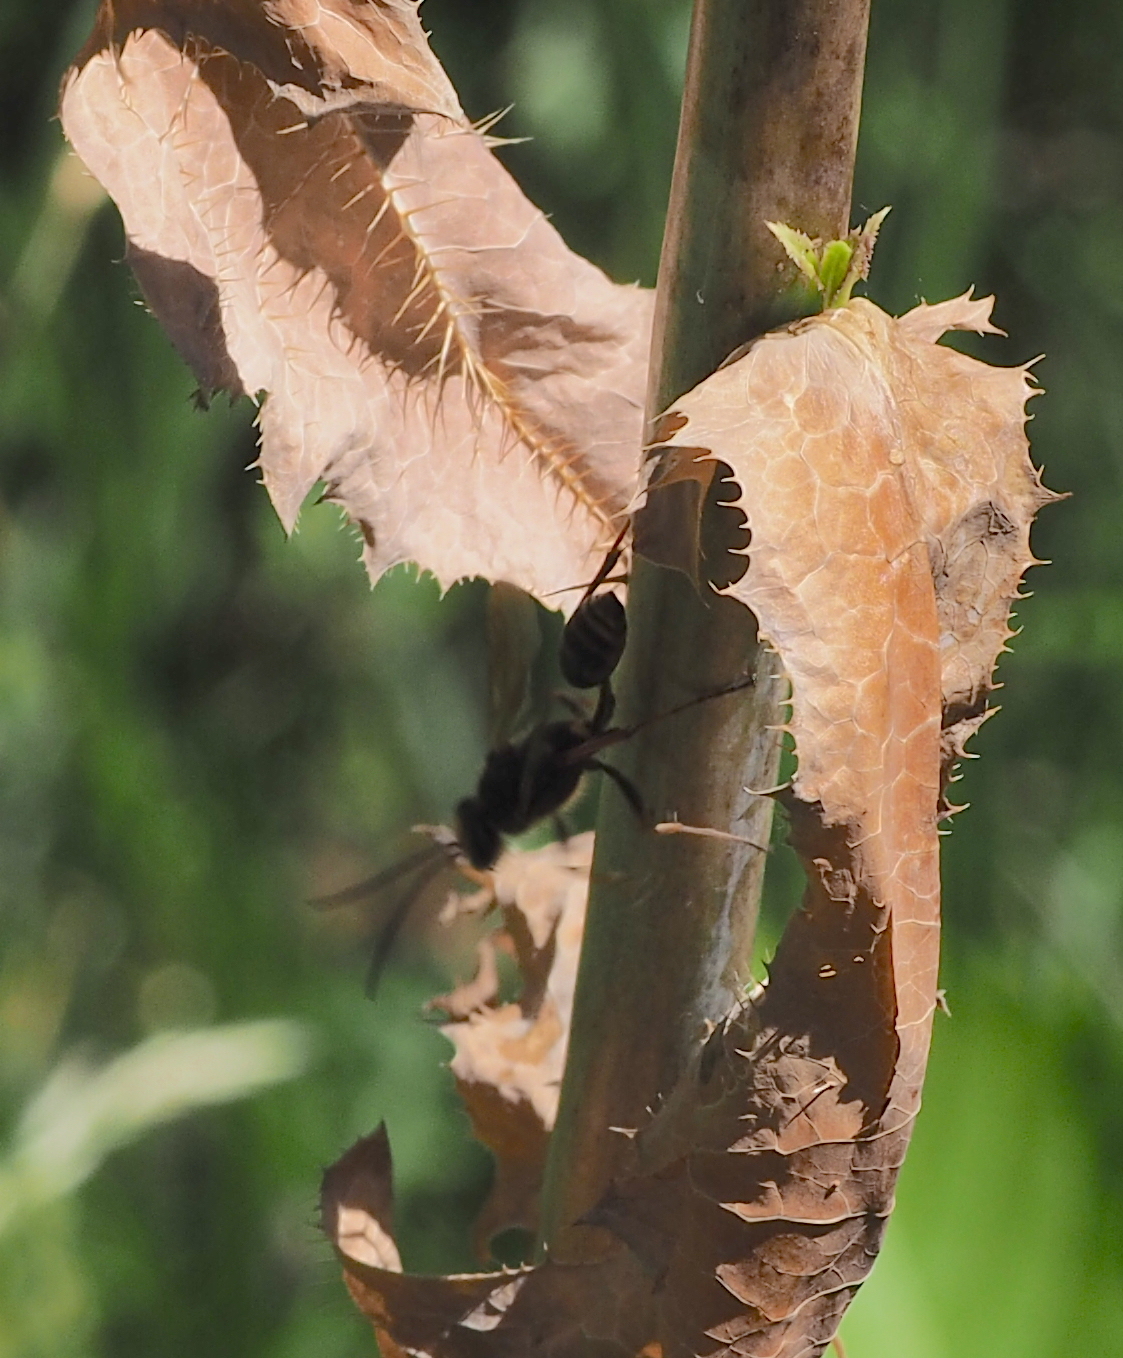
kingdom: Animalia
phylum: Arthropoda
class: Insecta
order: Hymenoptera
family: Sphecidae
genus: Sceliphron
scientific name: Sceliphron curvatum
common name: Pèlopèe
